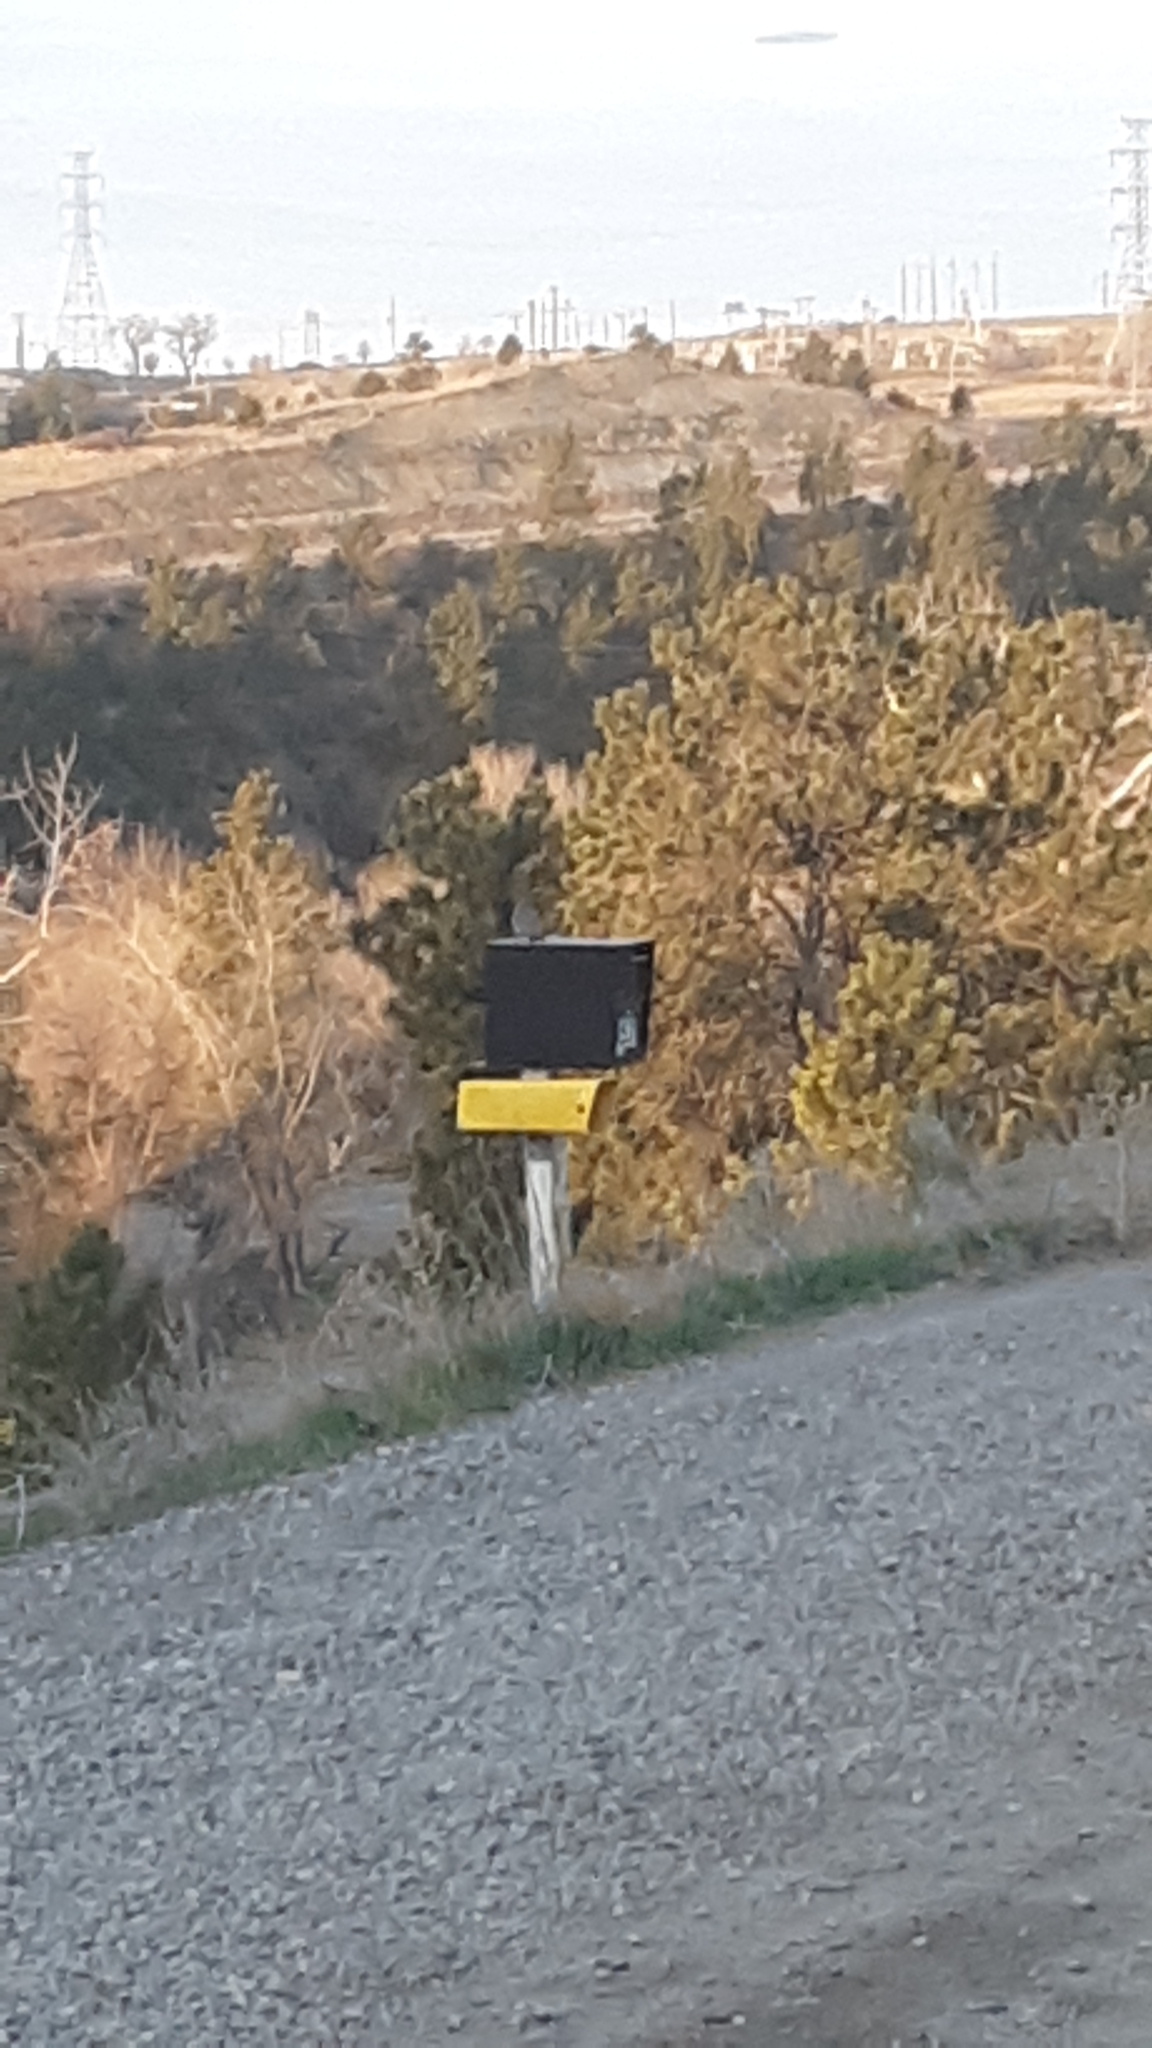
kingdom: Animalia
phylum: Chordata
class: Aves
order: Piciformes
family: Picidae
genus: Colaptes
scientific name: Colaptes auratus
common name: Northern flicker
